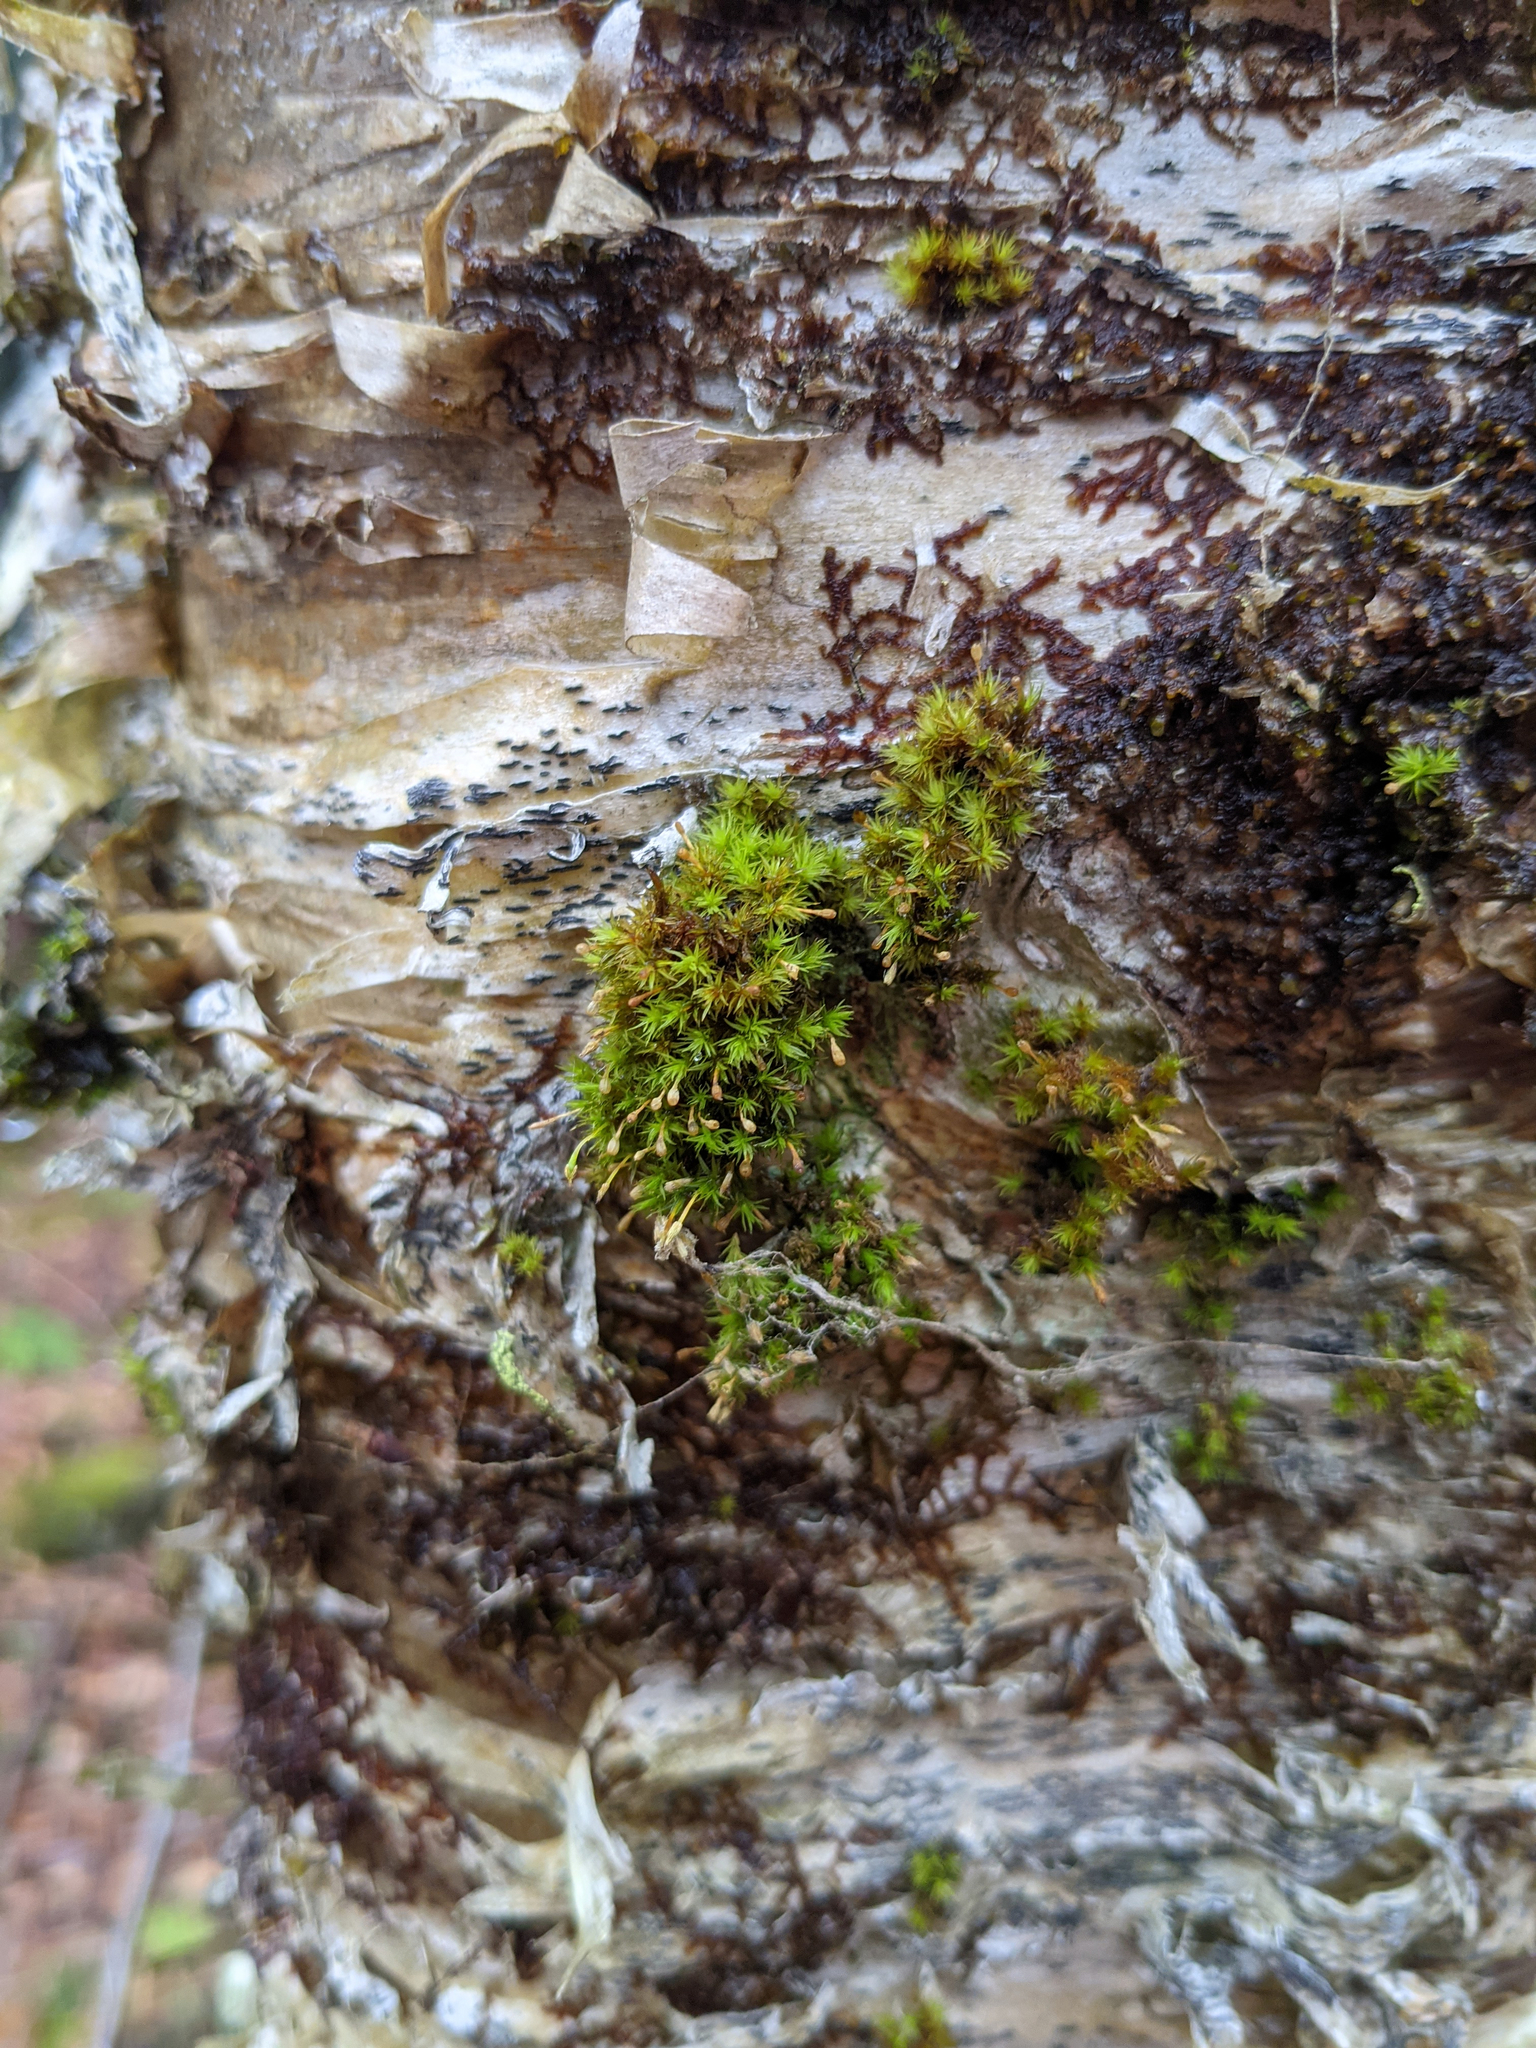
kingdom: Plantae
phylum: Bryophyta
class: Bryopsida
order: Orthotrichales
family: Orthotrichaceae
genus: Ulota
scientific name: Ulota crispa
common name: Crisped pincushion moss
